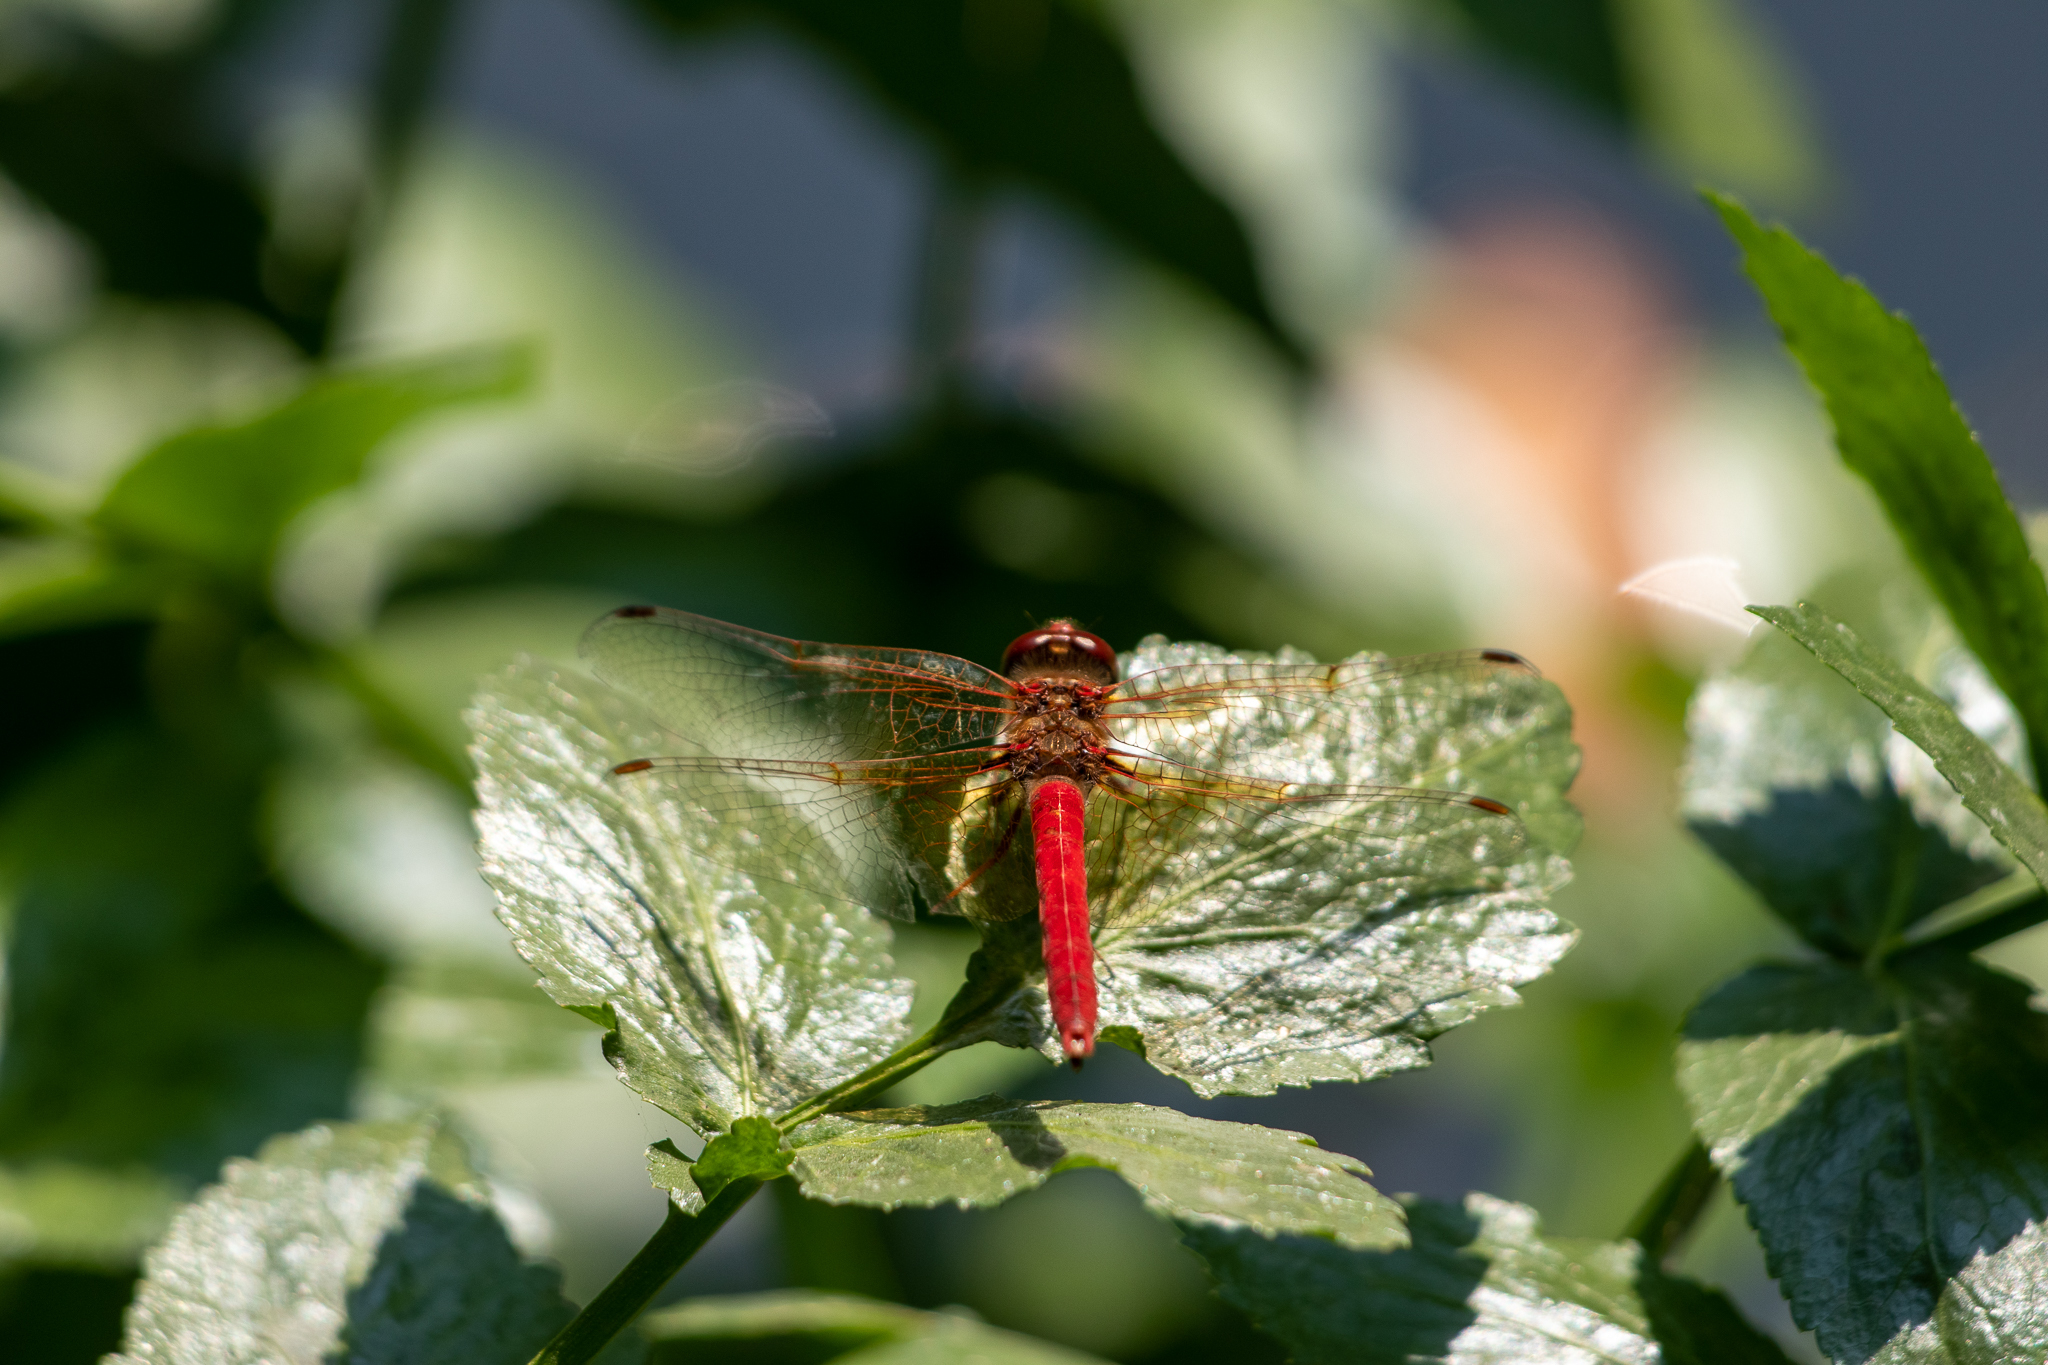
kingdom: Animalia
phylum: Arthropoda
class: Insecta
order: Odonata
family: Libellulidae
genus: Sympetrum
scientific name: Sympetrum illotum
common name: Cardinal meadowhawk
